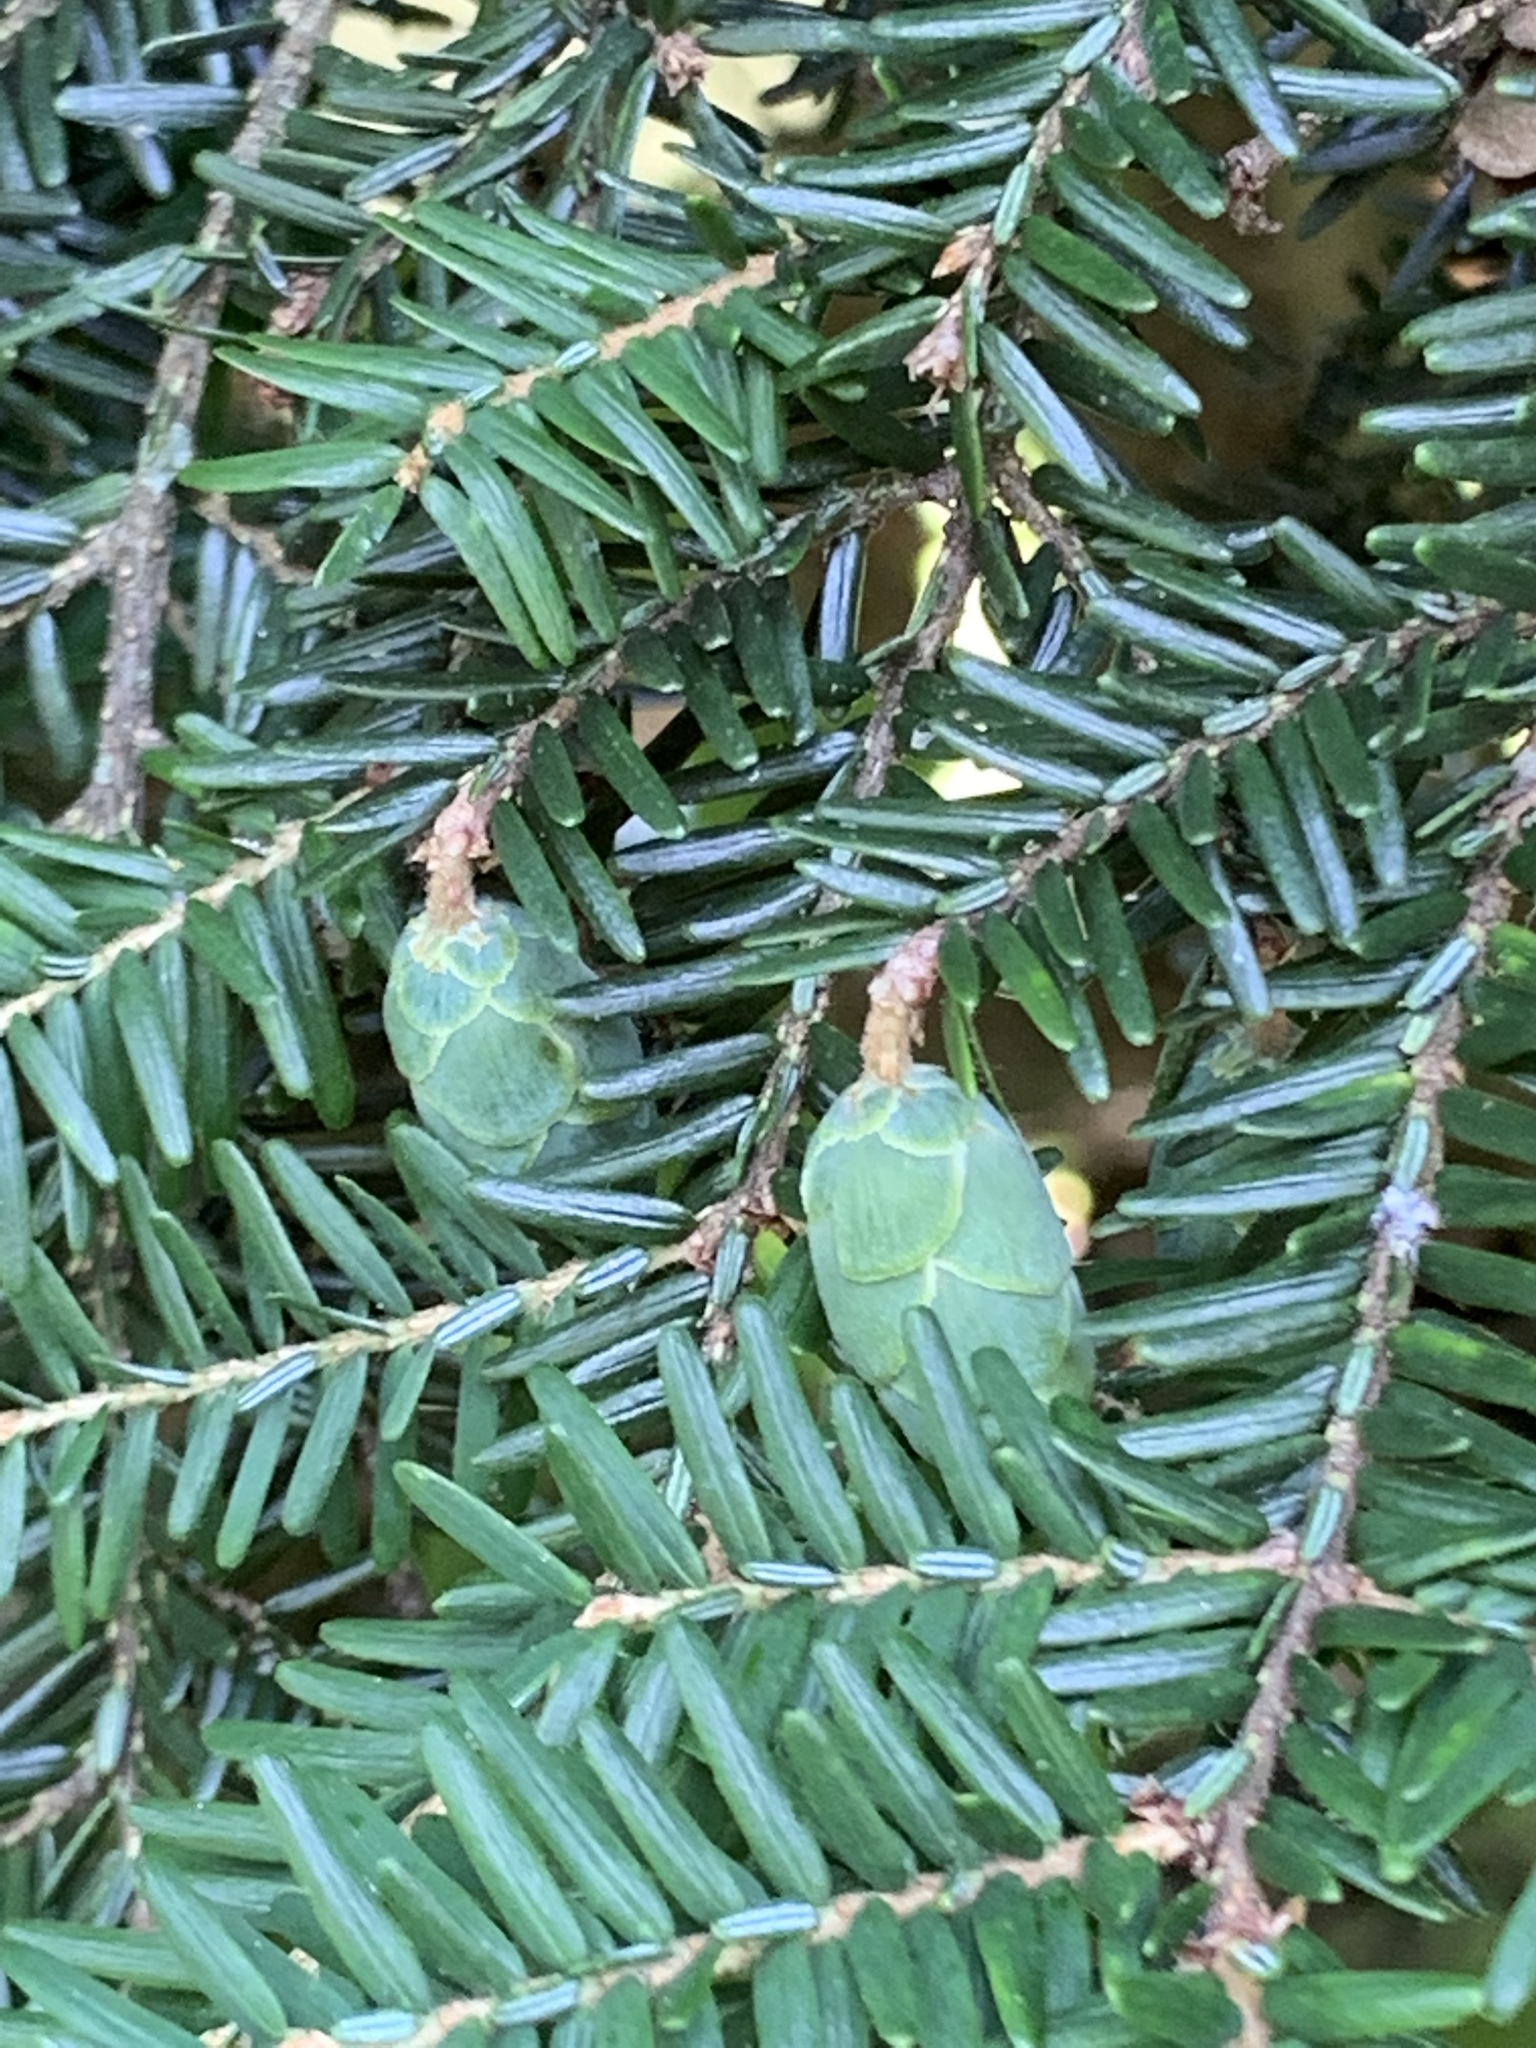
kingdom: Plantae
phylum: Tracheophyta
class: Pinopsida
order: Pinales
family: Pinaceae
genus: Tsuga
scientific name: Tsuga canadensis
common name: Eastern hemlock
